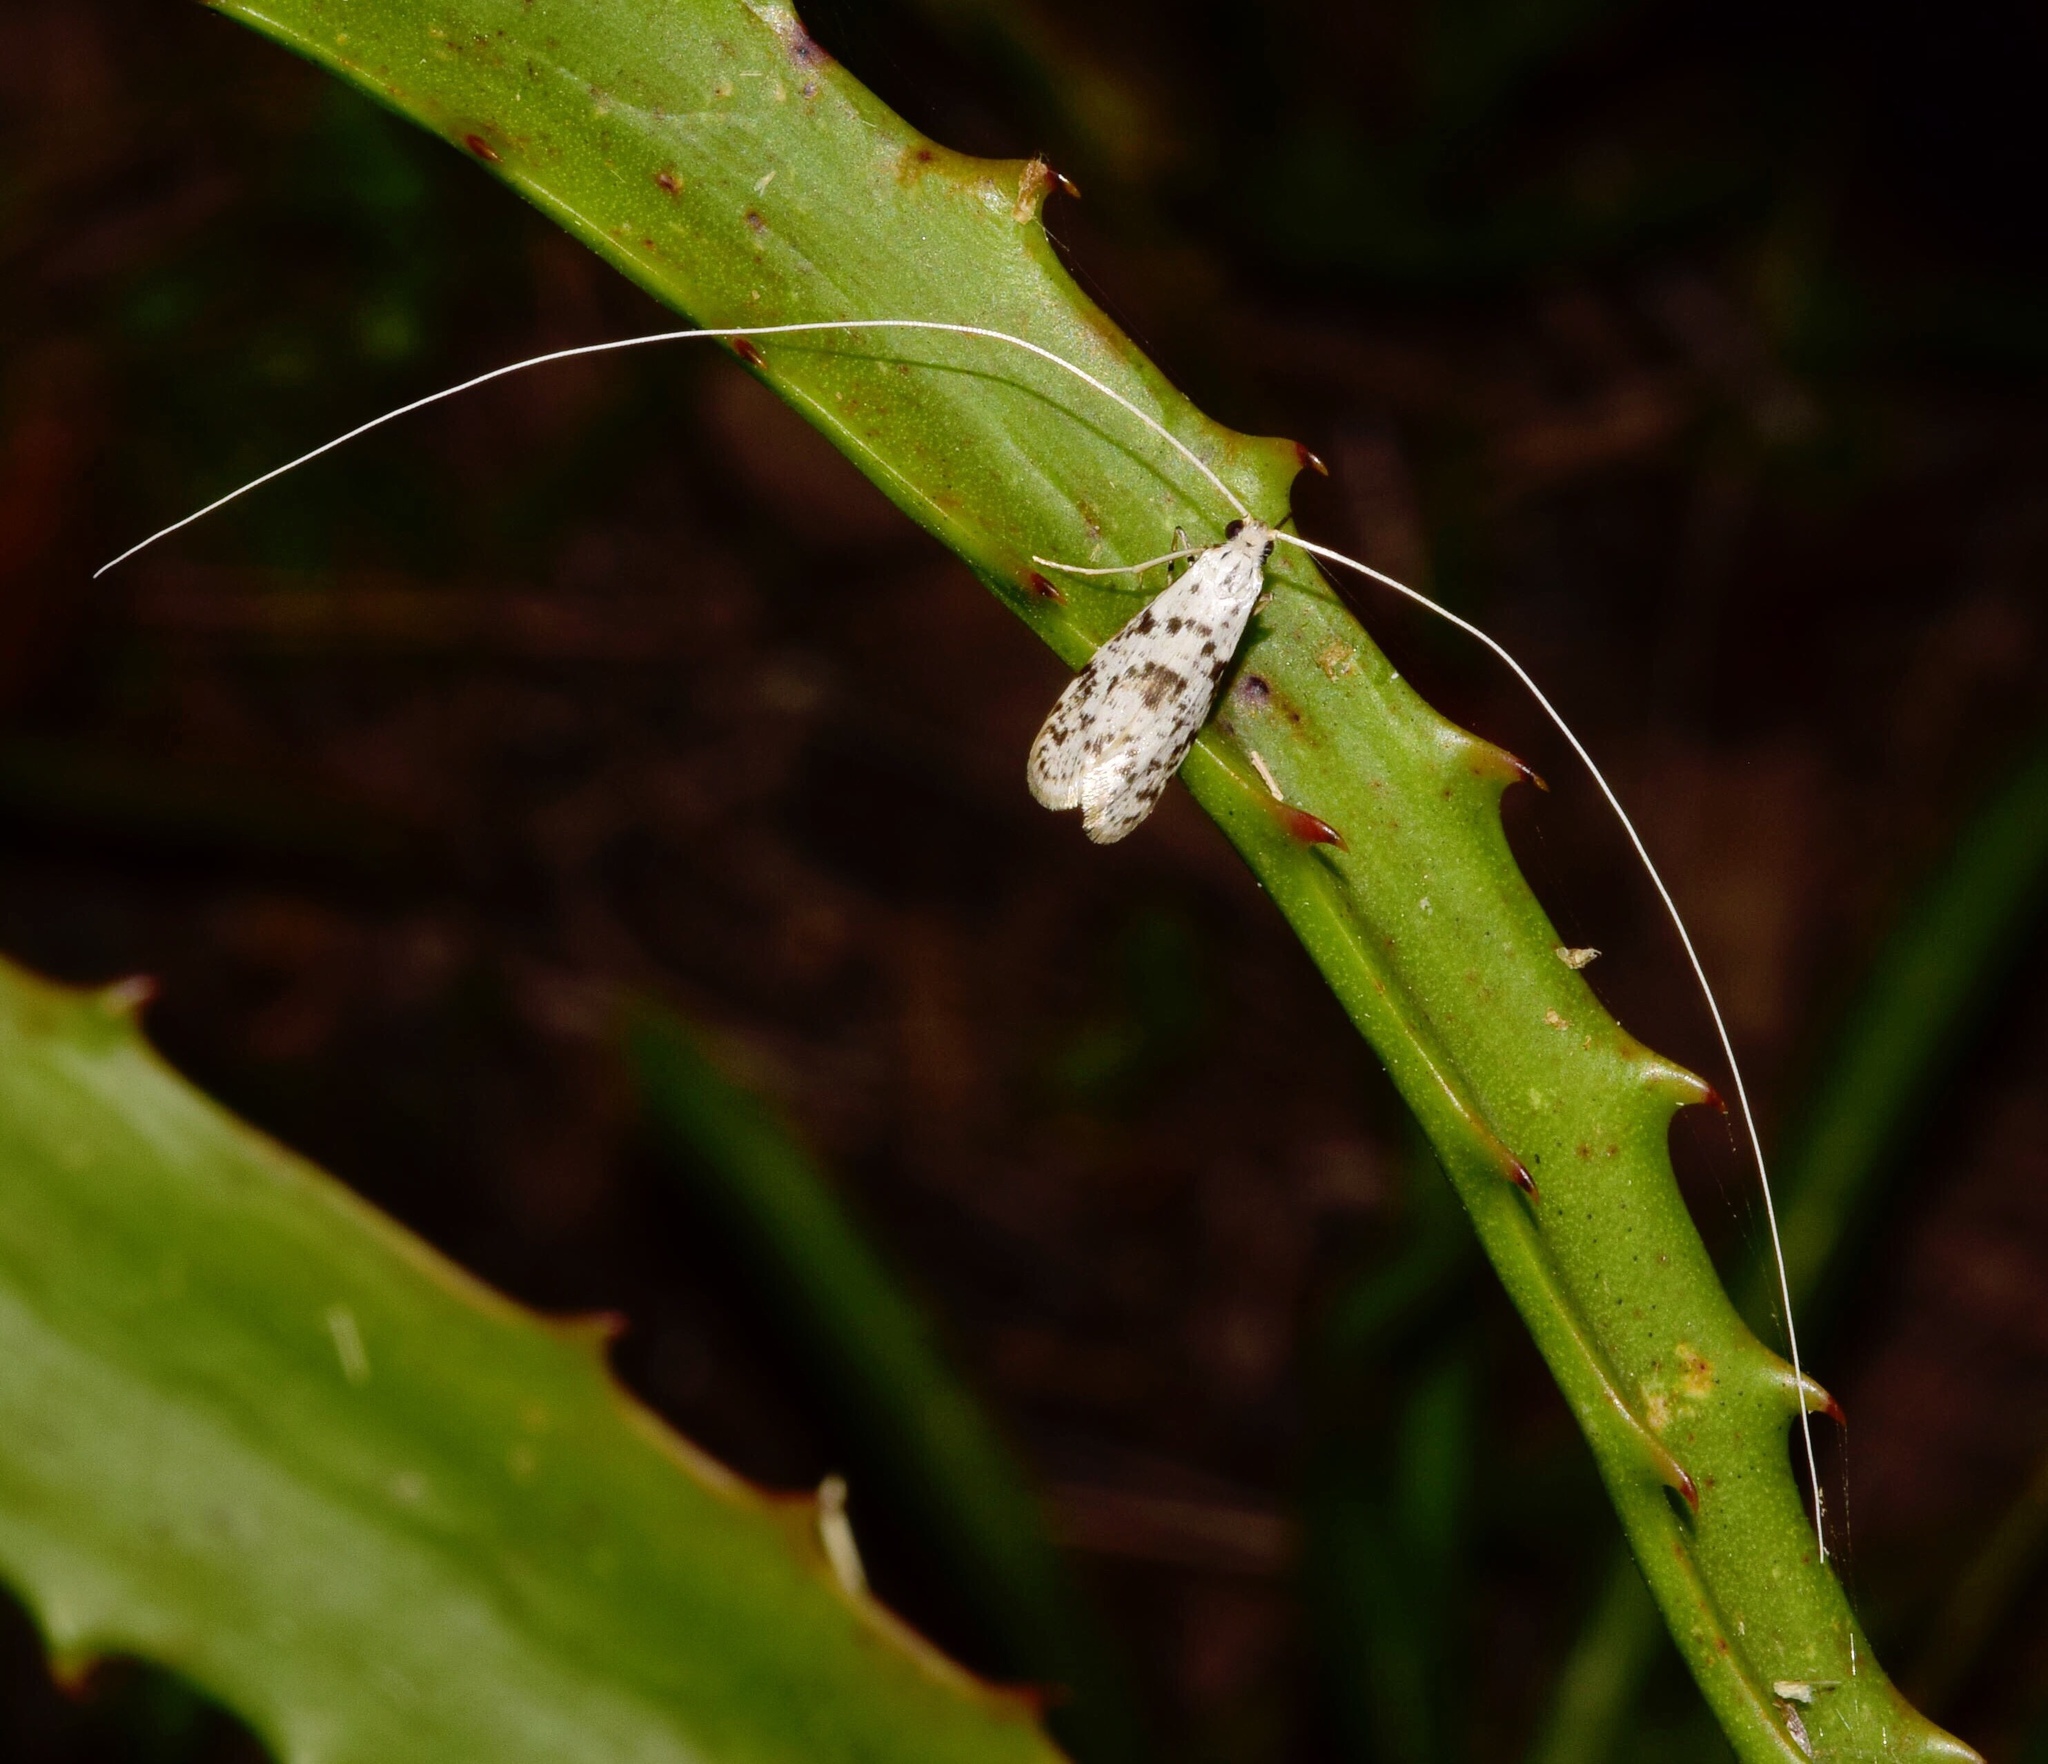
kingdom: Animalia
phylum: Arthropoda
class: Insecta
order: Lepidoptera
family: Adelidae
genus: Ceromitia
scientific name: Ceromitia turpisella
